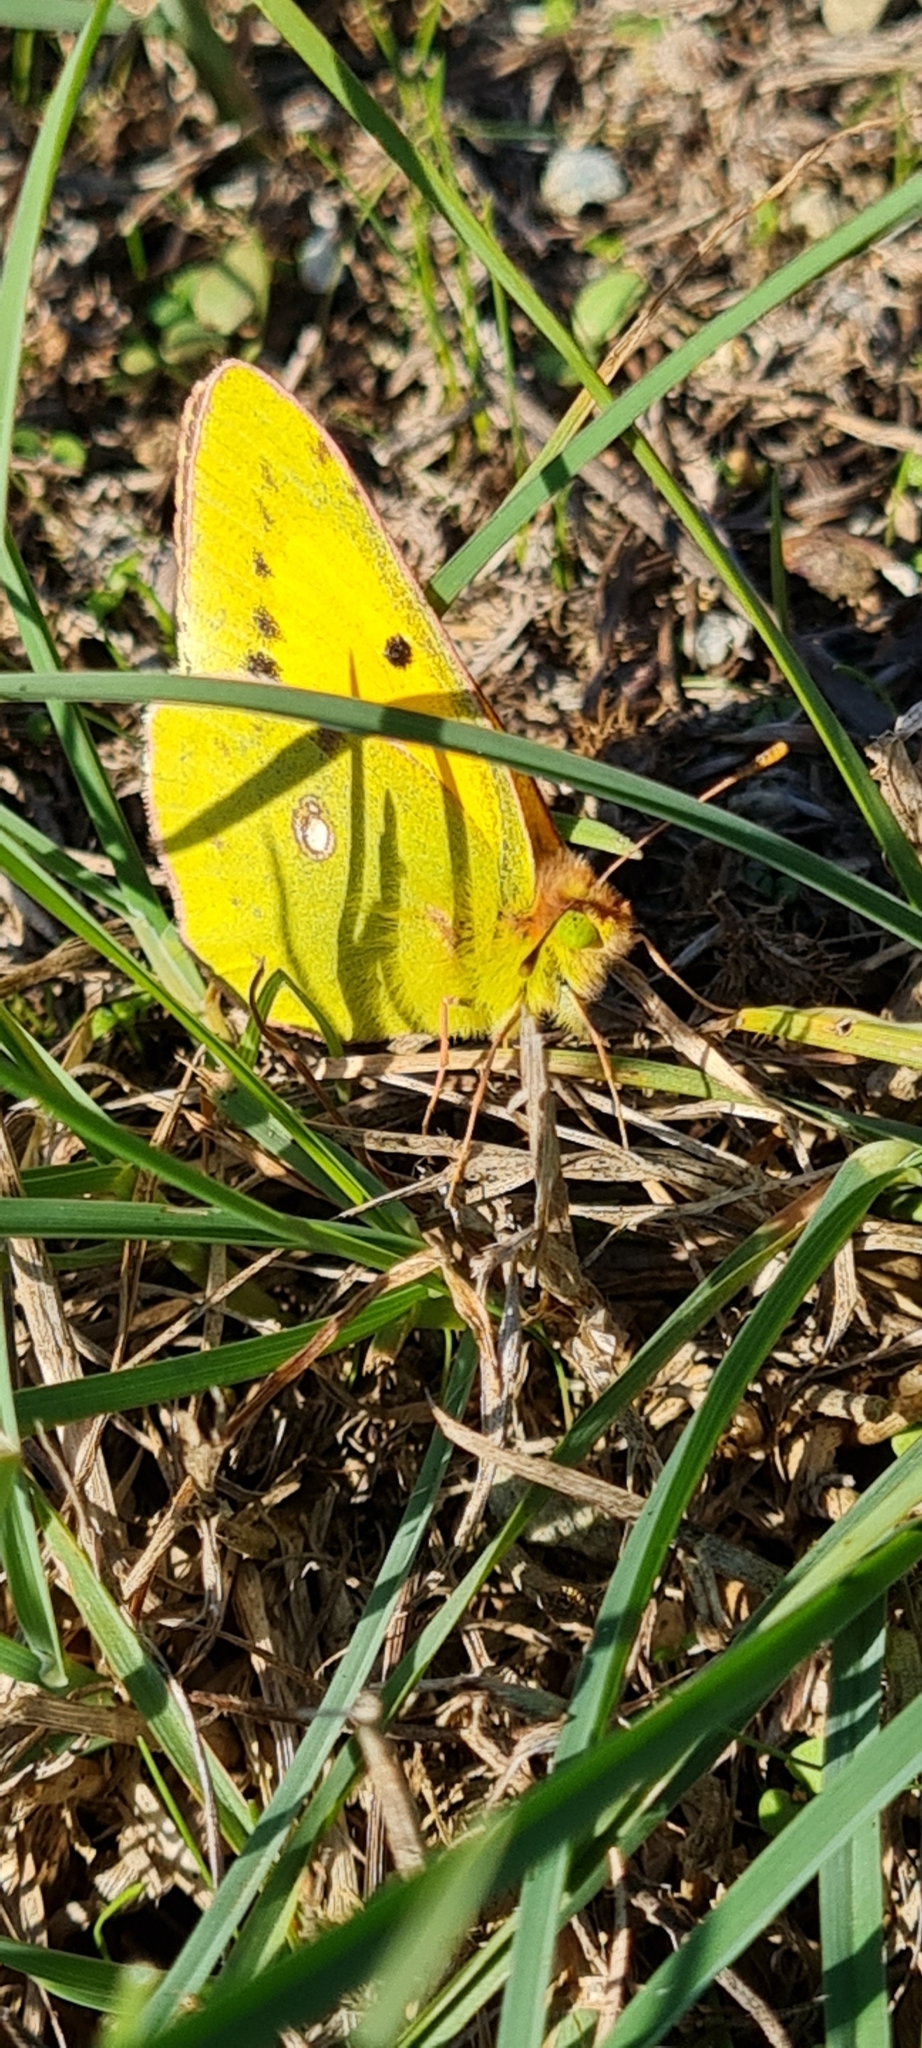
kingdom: Animalia
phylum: Arthropoda
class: Insecta
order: Lepidoptera
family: Pieridae
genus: Colias
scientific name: Colias croceus
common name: Clouded yellow
